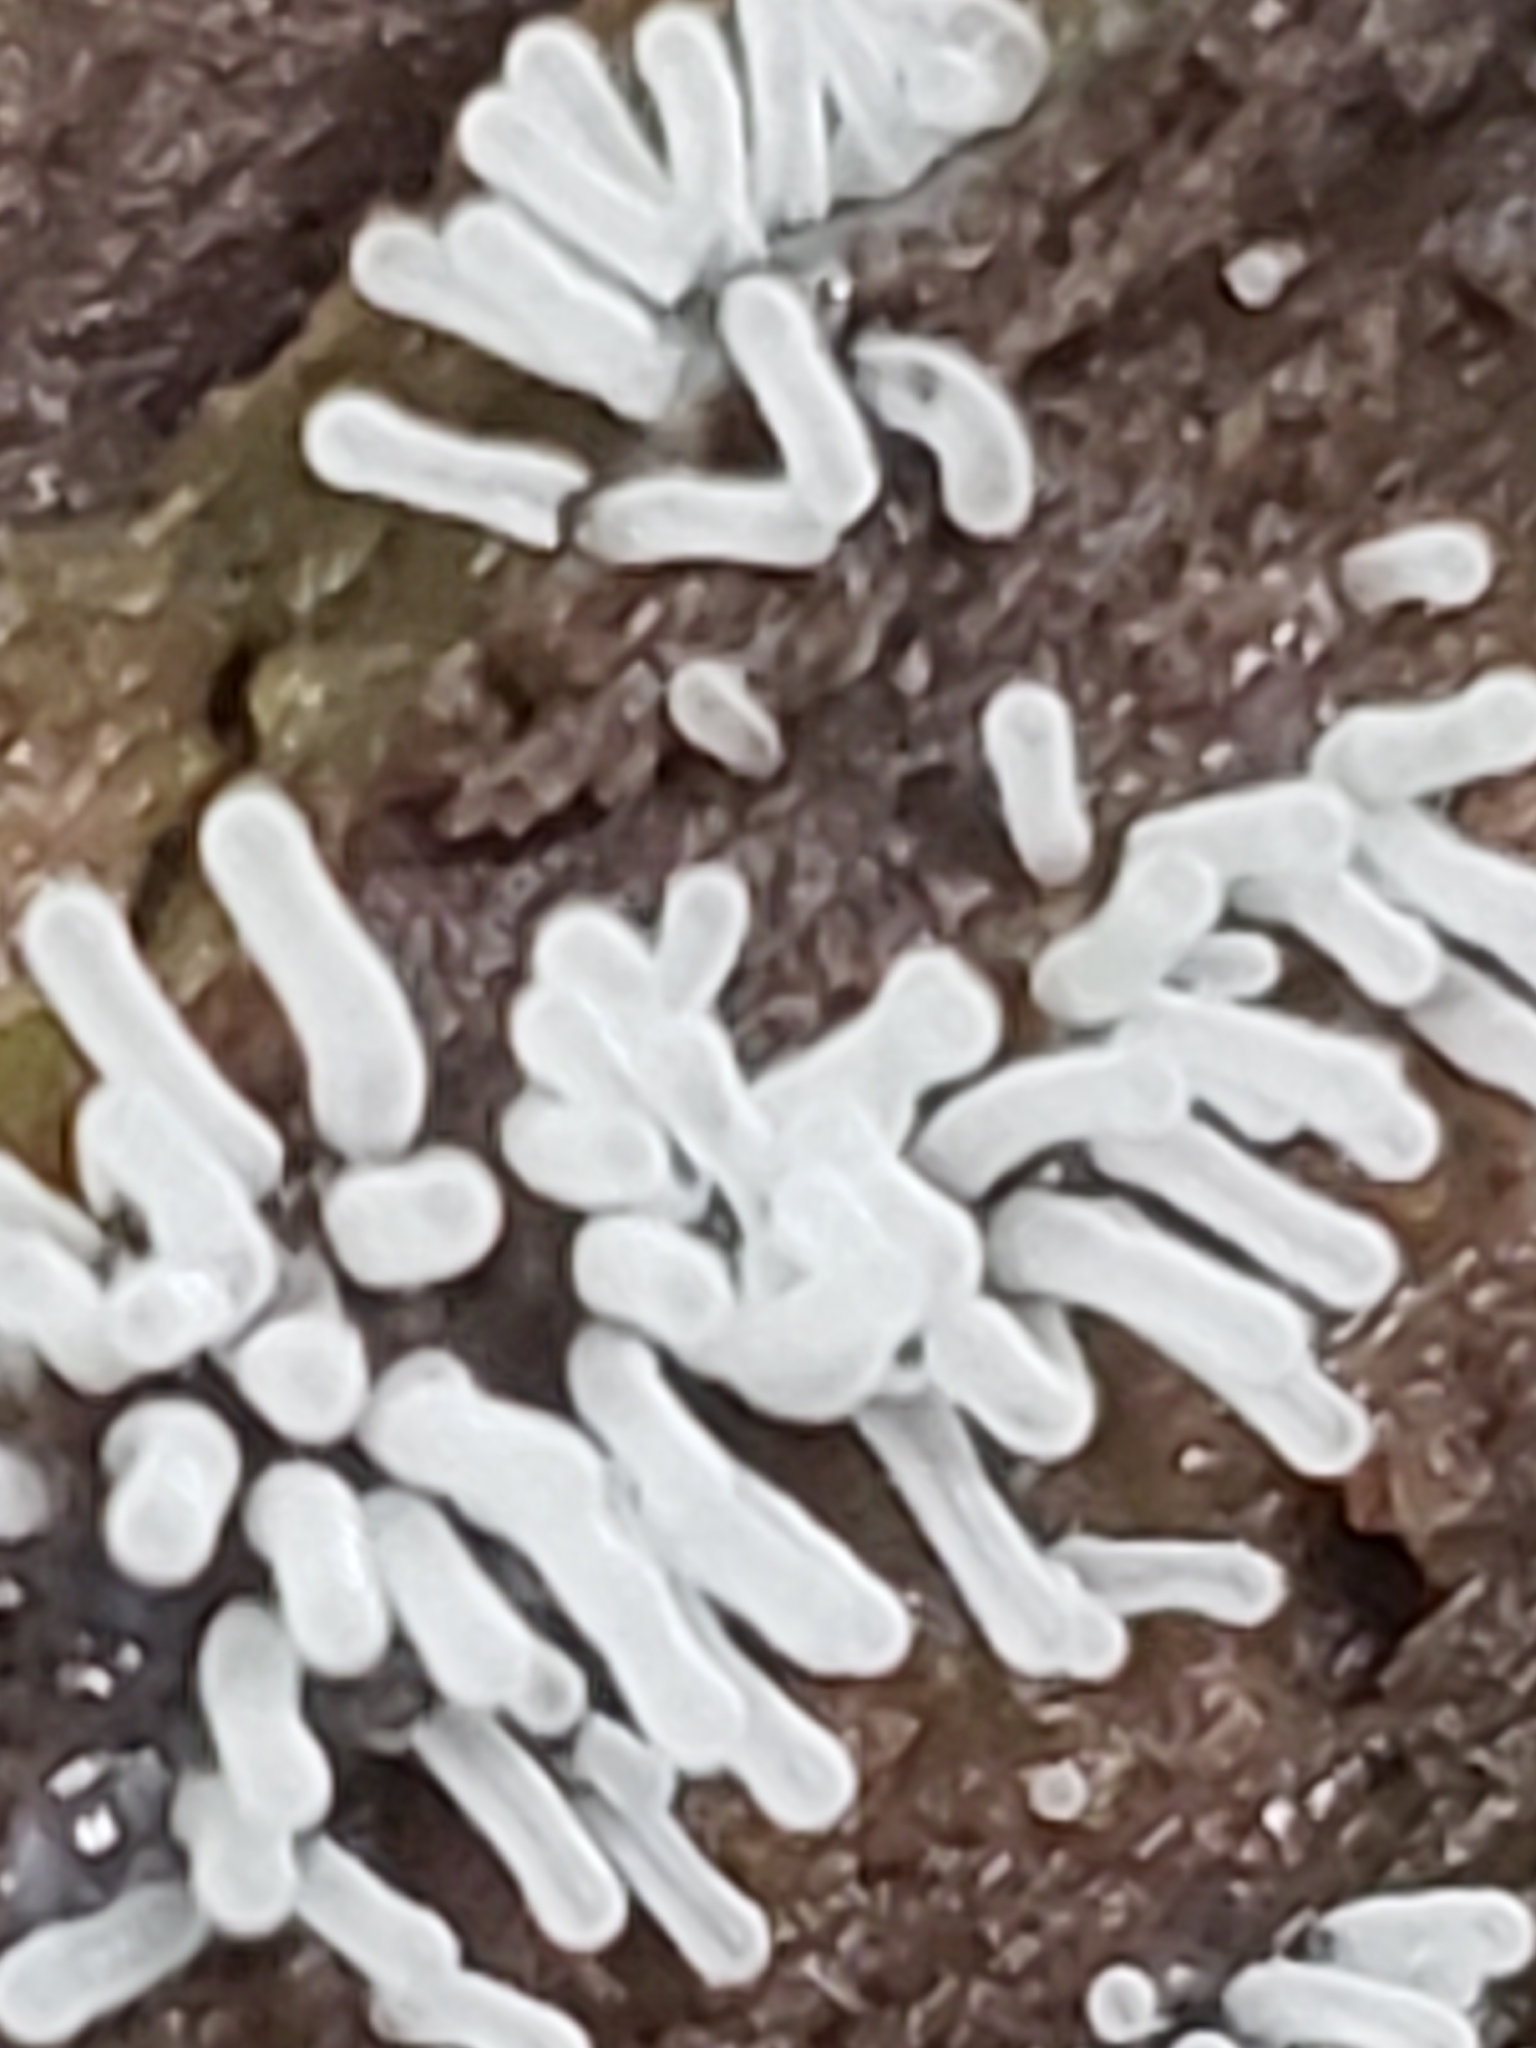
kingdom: Protozoa
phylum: Mycetozoa
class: Protosteliomycetes
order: Ceratiomyxales
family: Ceratiomyxaceae
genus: Ceratiomyxa
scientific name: Ceratiomyxa fruticulosa
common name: Honeycomb coral slime mold
